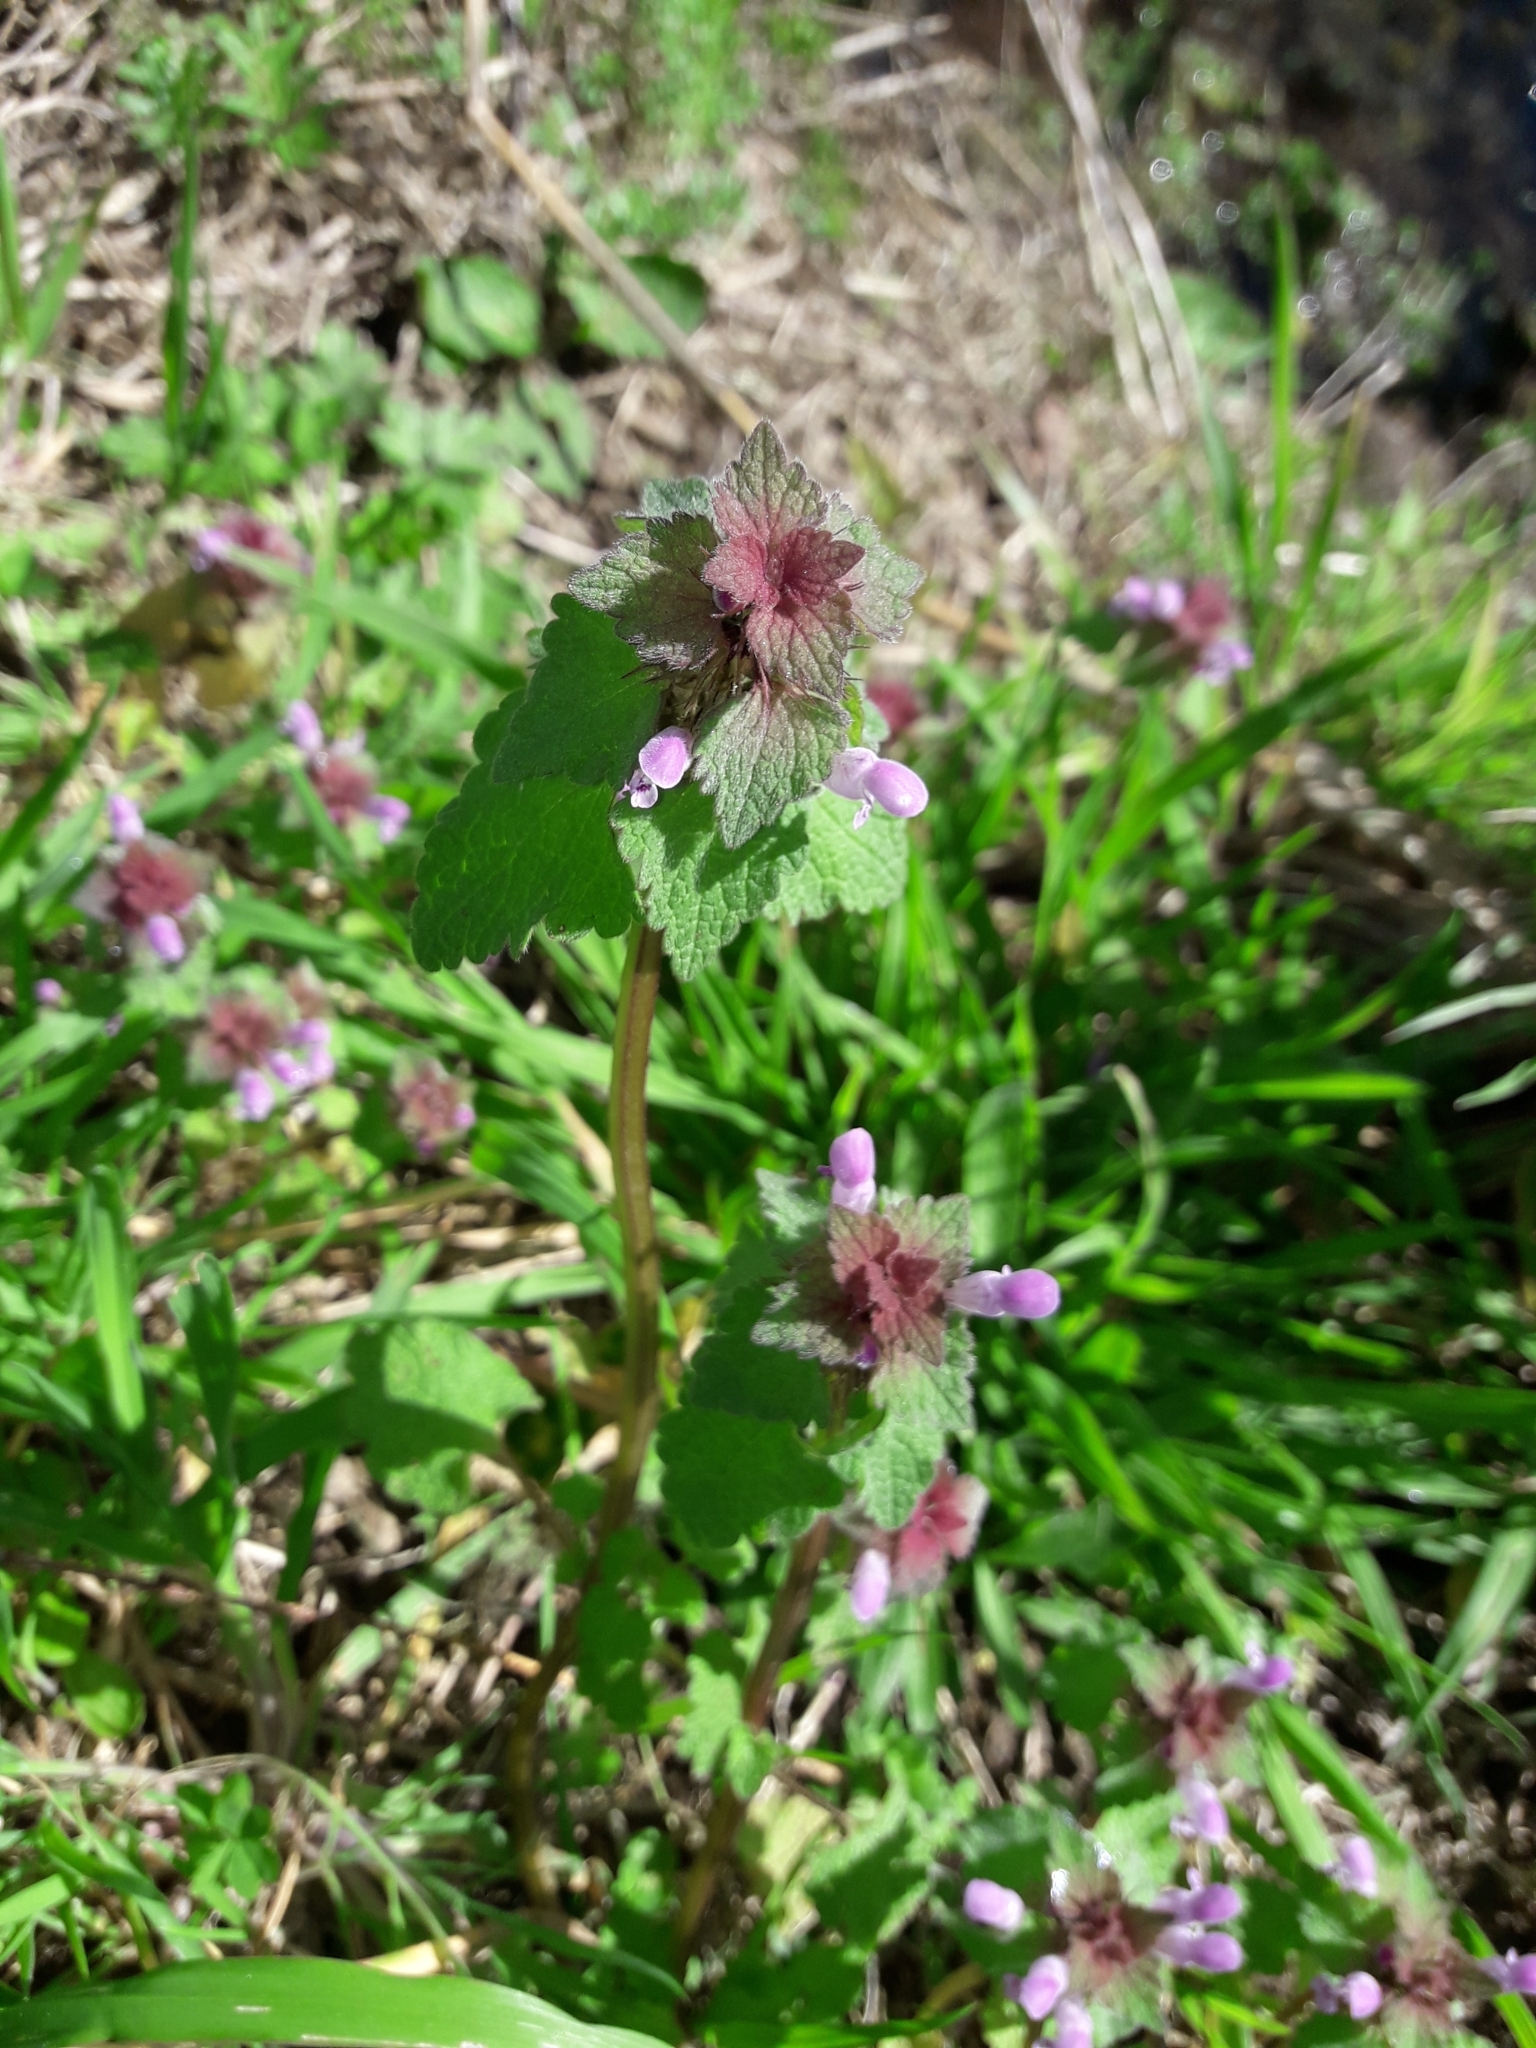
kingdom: Plantae
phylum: Tracheophyta
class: Magnoliopsida
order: Lamiales
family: Lamiaceae
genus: Lamium
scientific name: Lamium purpureum
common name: Red dead-nettle
